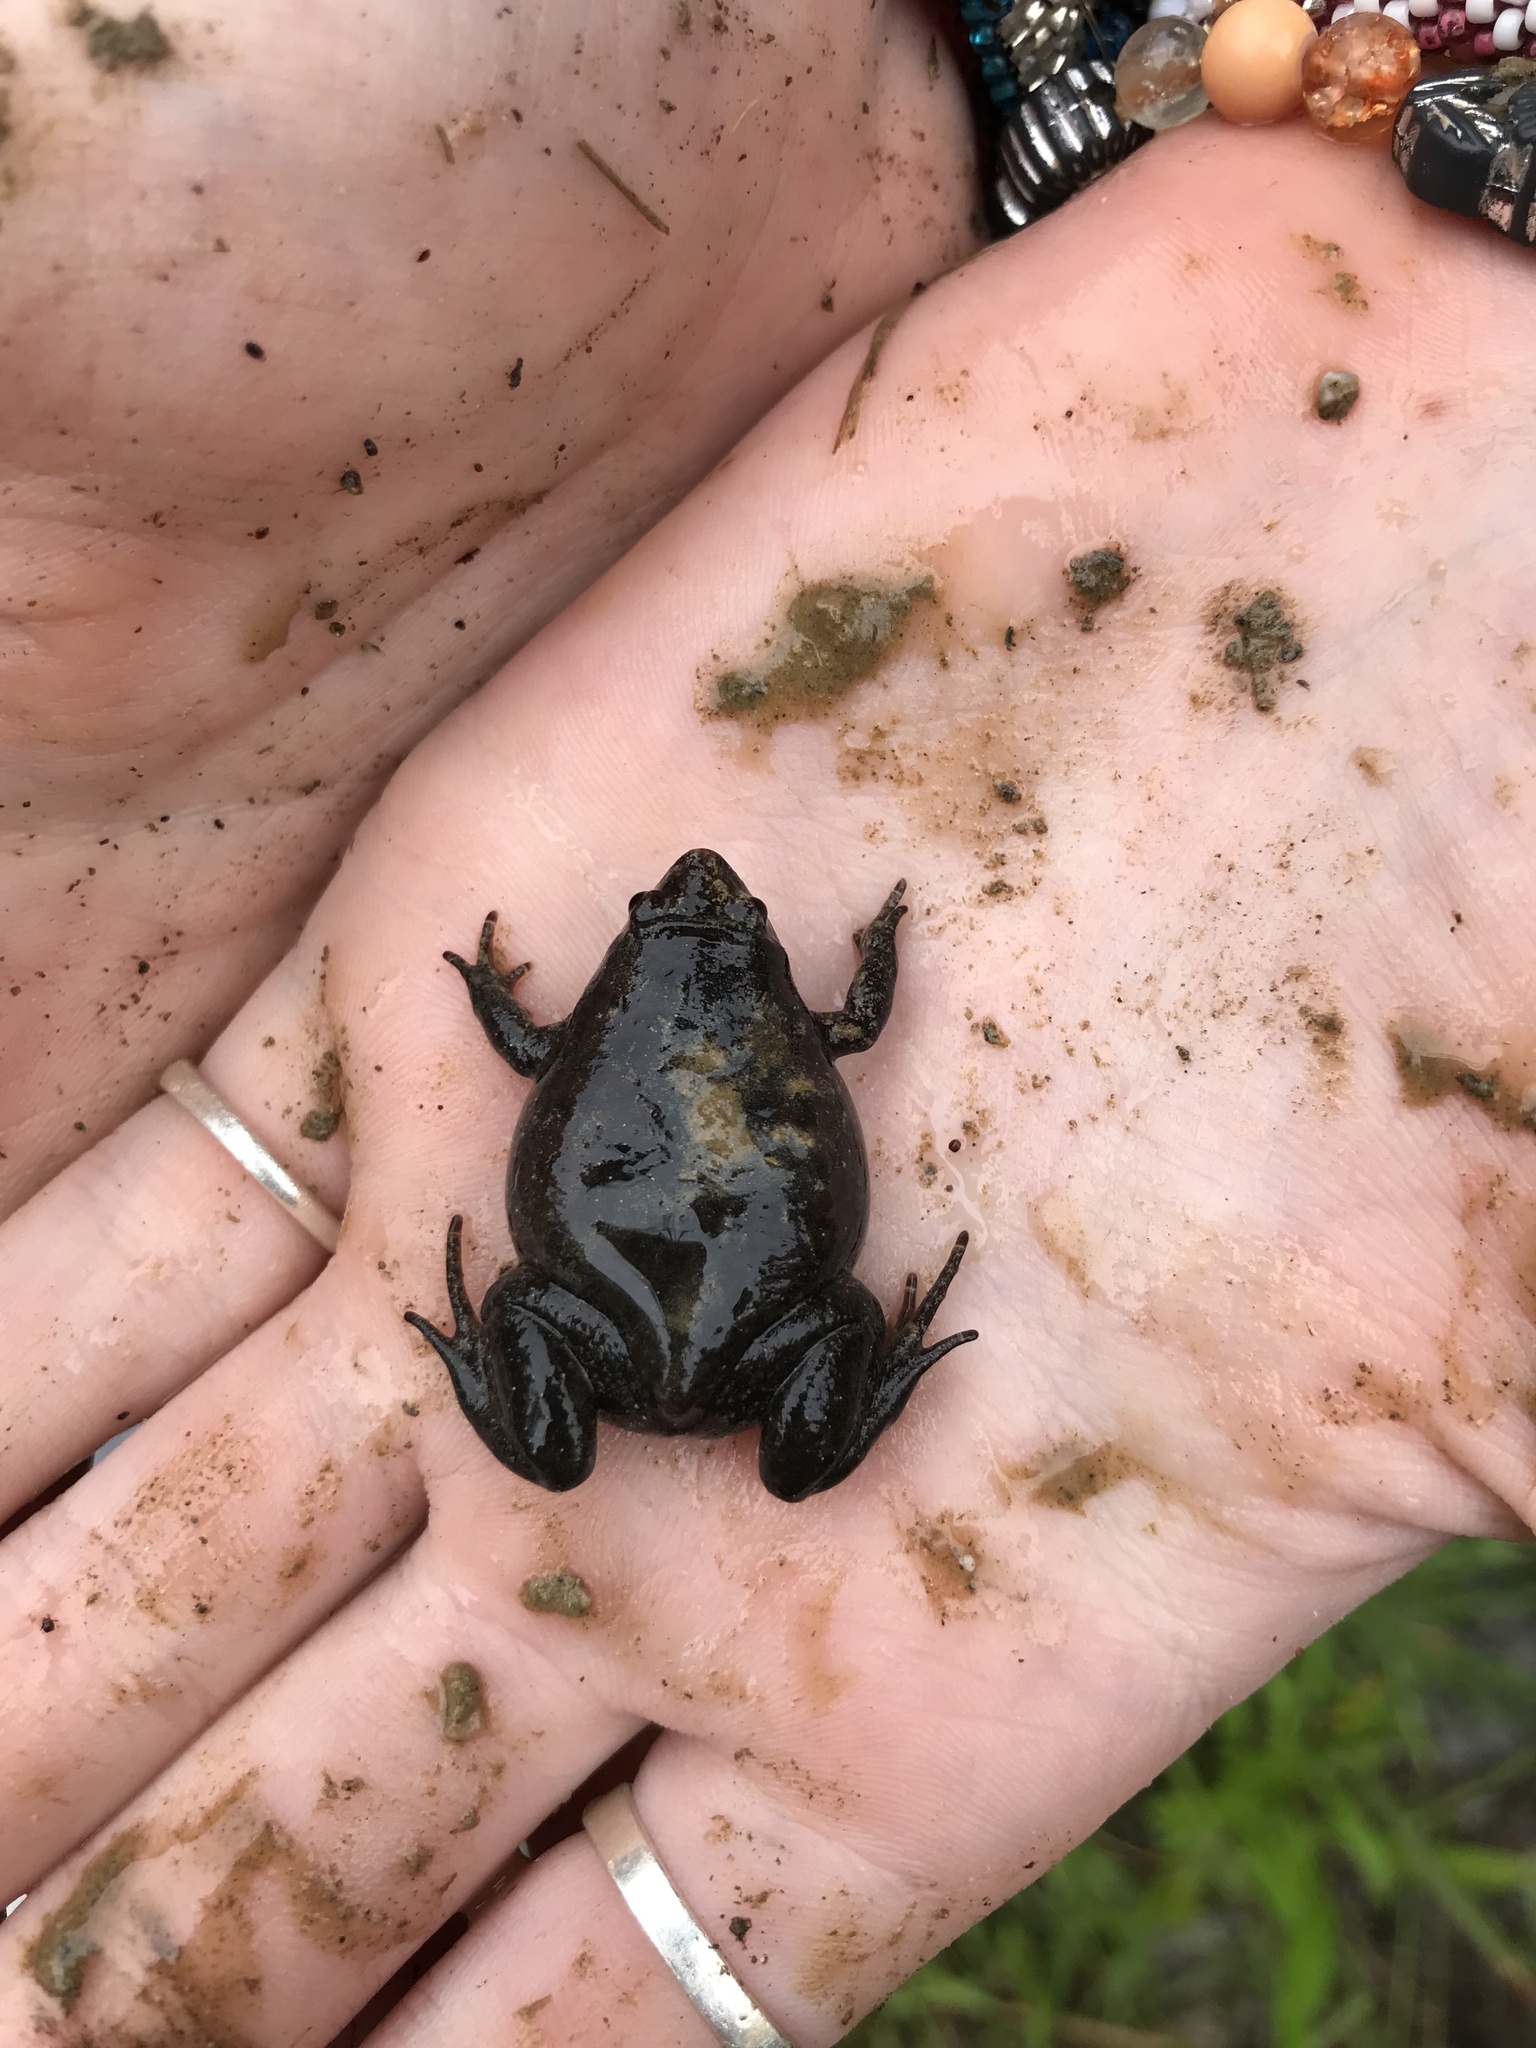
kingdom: Animalia
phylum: Chordata
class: Amphibia
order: Anura
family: Microhylidae
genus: Gastrophryne
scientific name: Gastrophryne carolinensis
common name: Eastern narrowmouth toad
